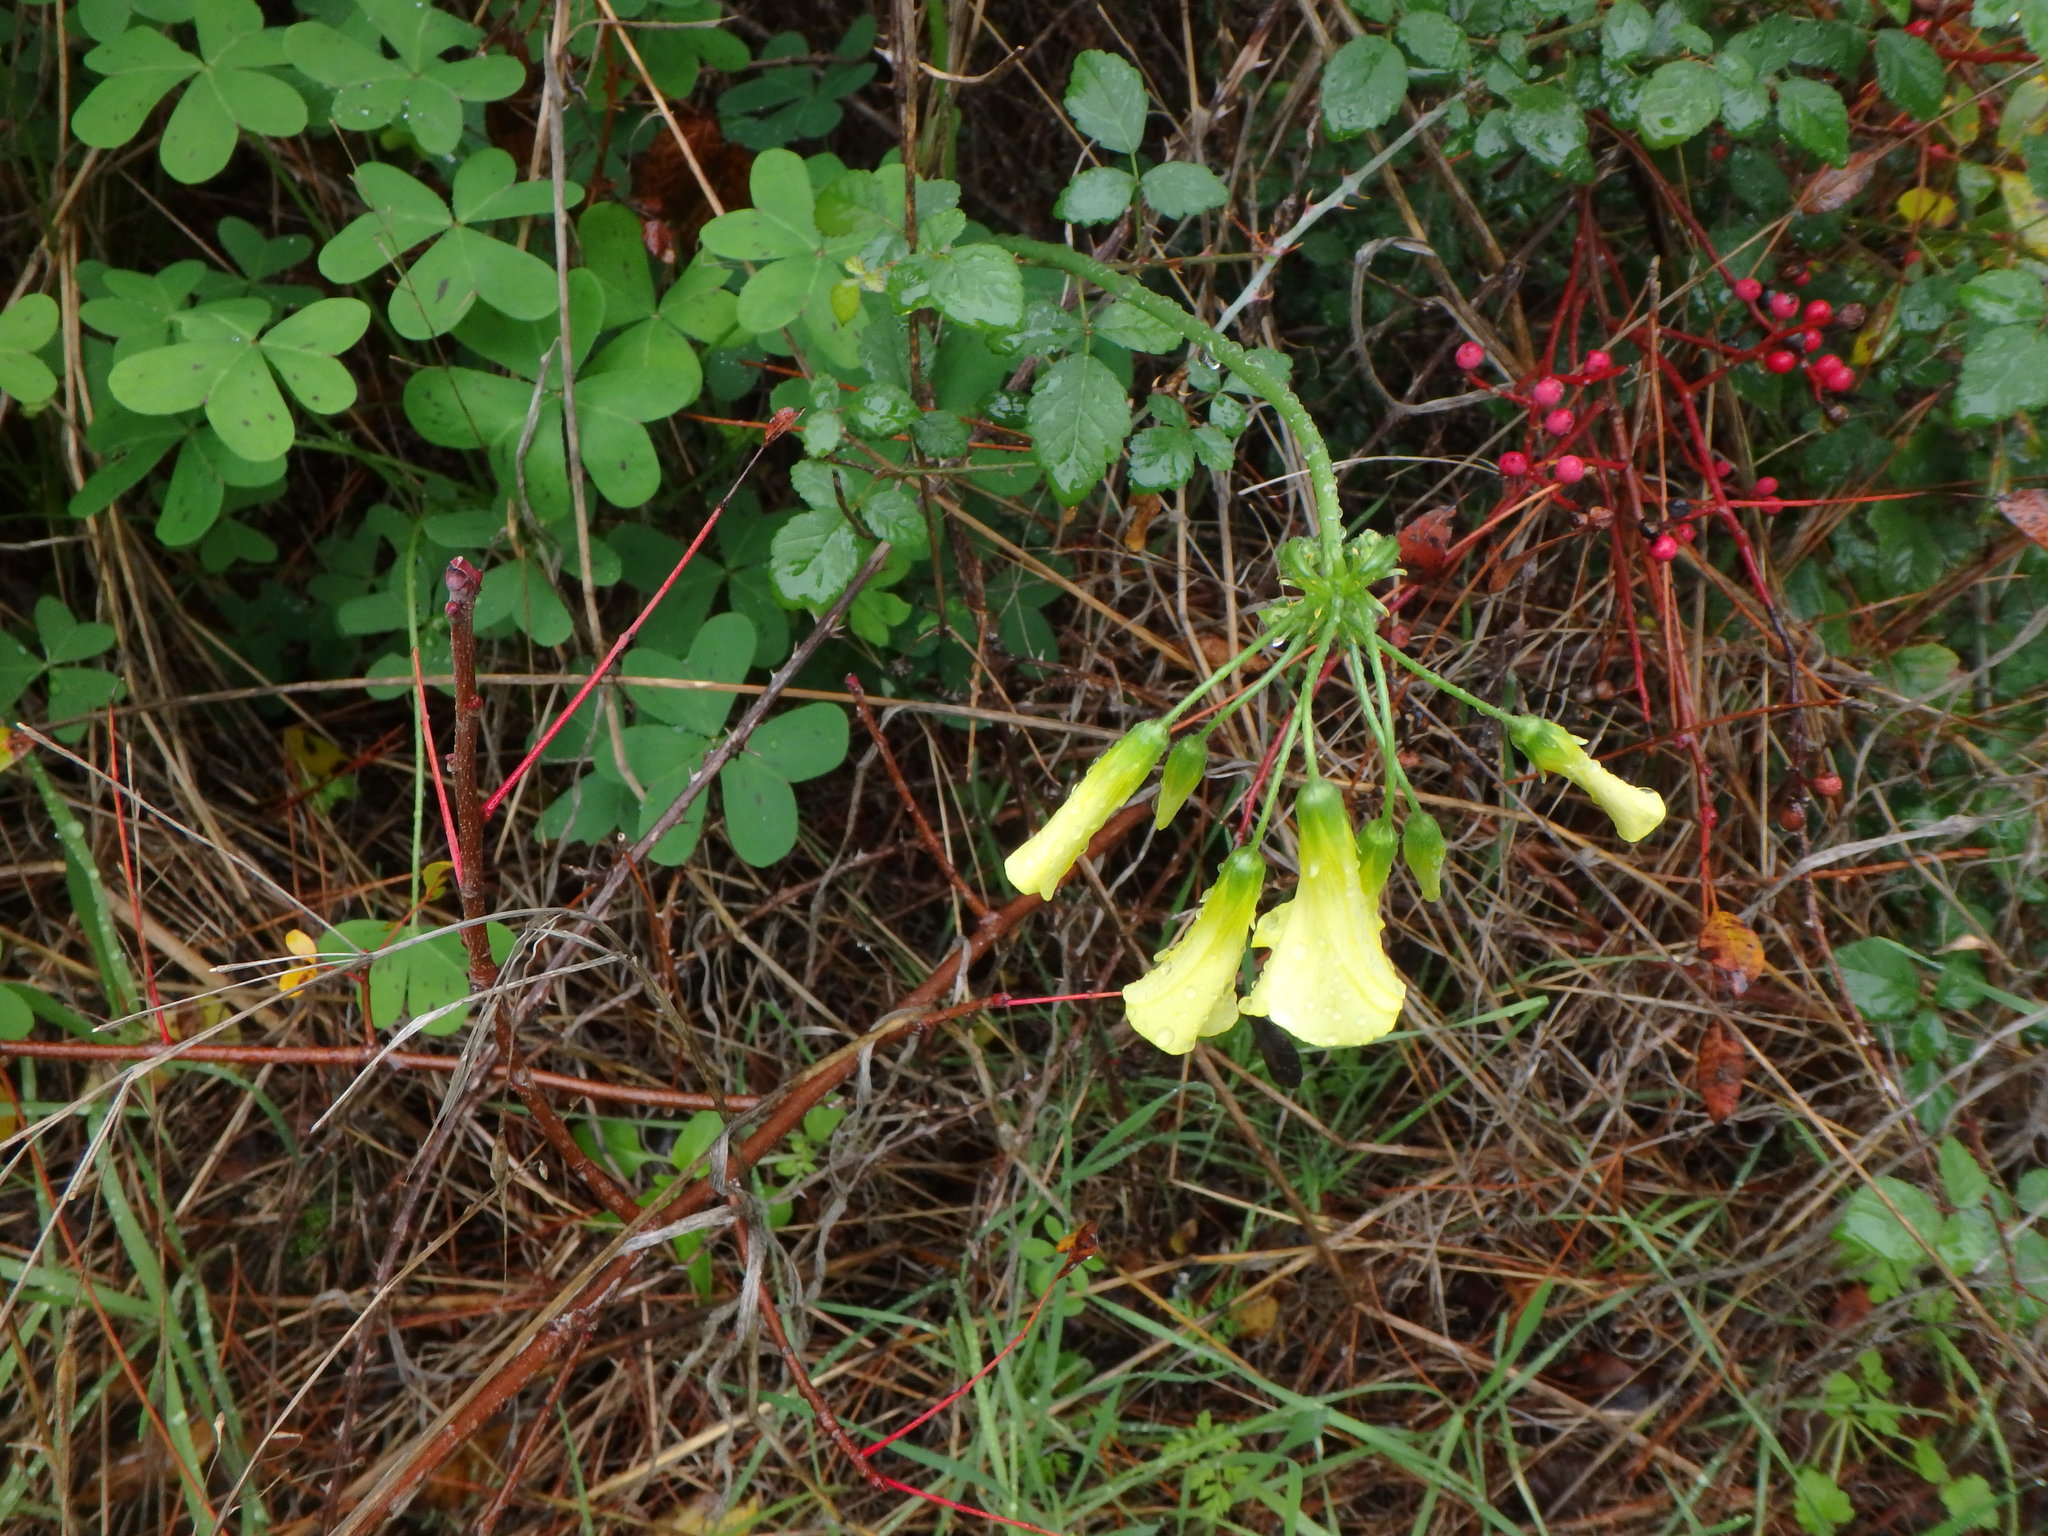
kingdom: Plantae
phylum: Tracheophyta
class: Magnoliopsida
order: Oxalidales
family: Oxalidaceae
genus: Oxalis
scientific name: Oxalis pes-caprae
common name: Bermuda-buttercup
